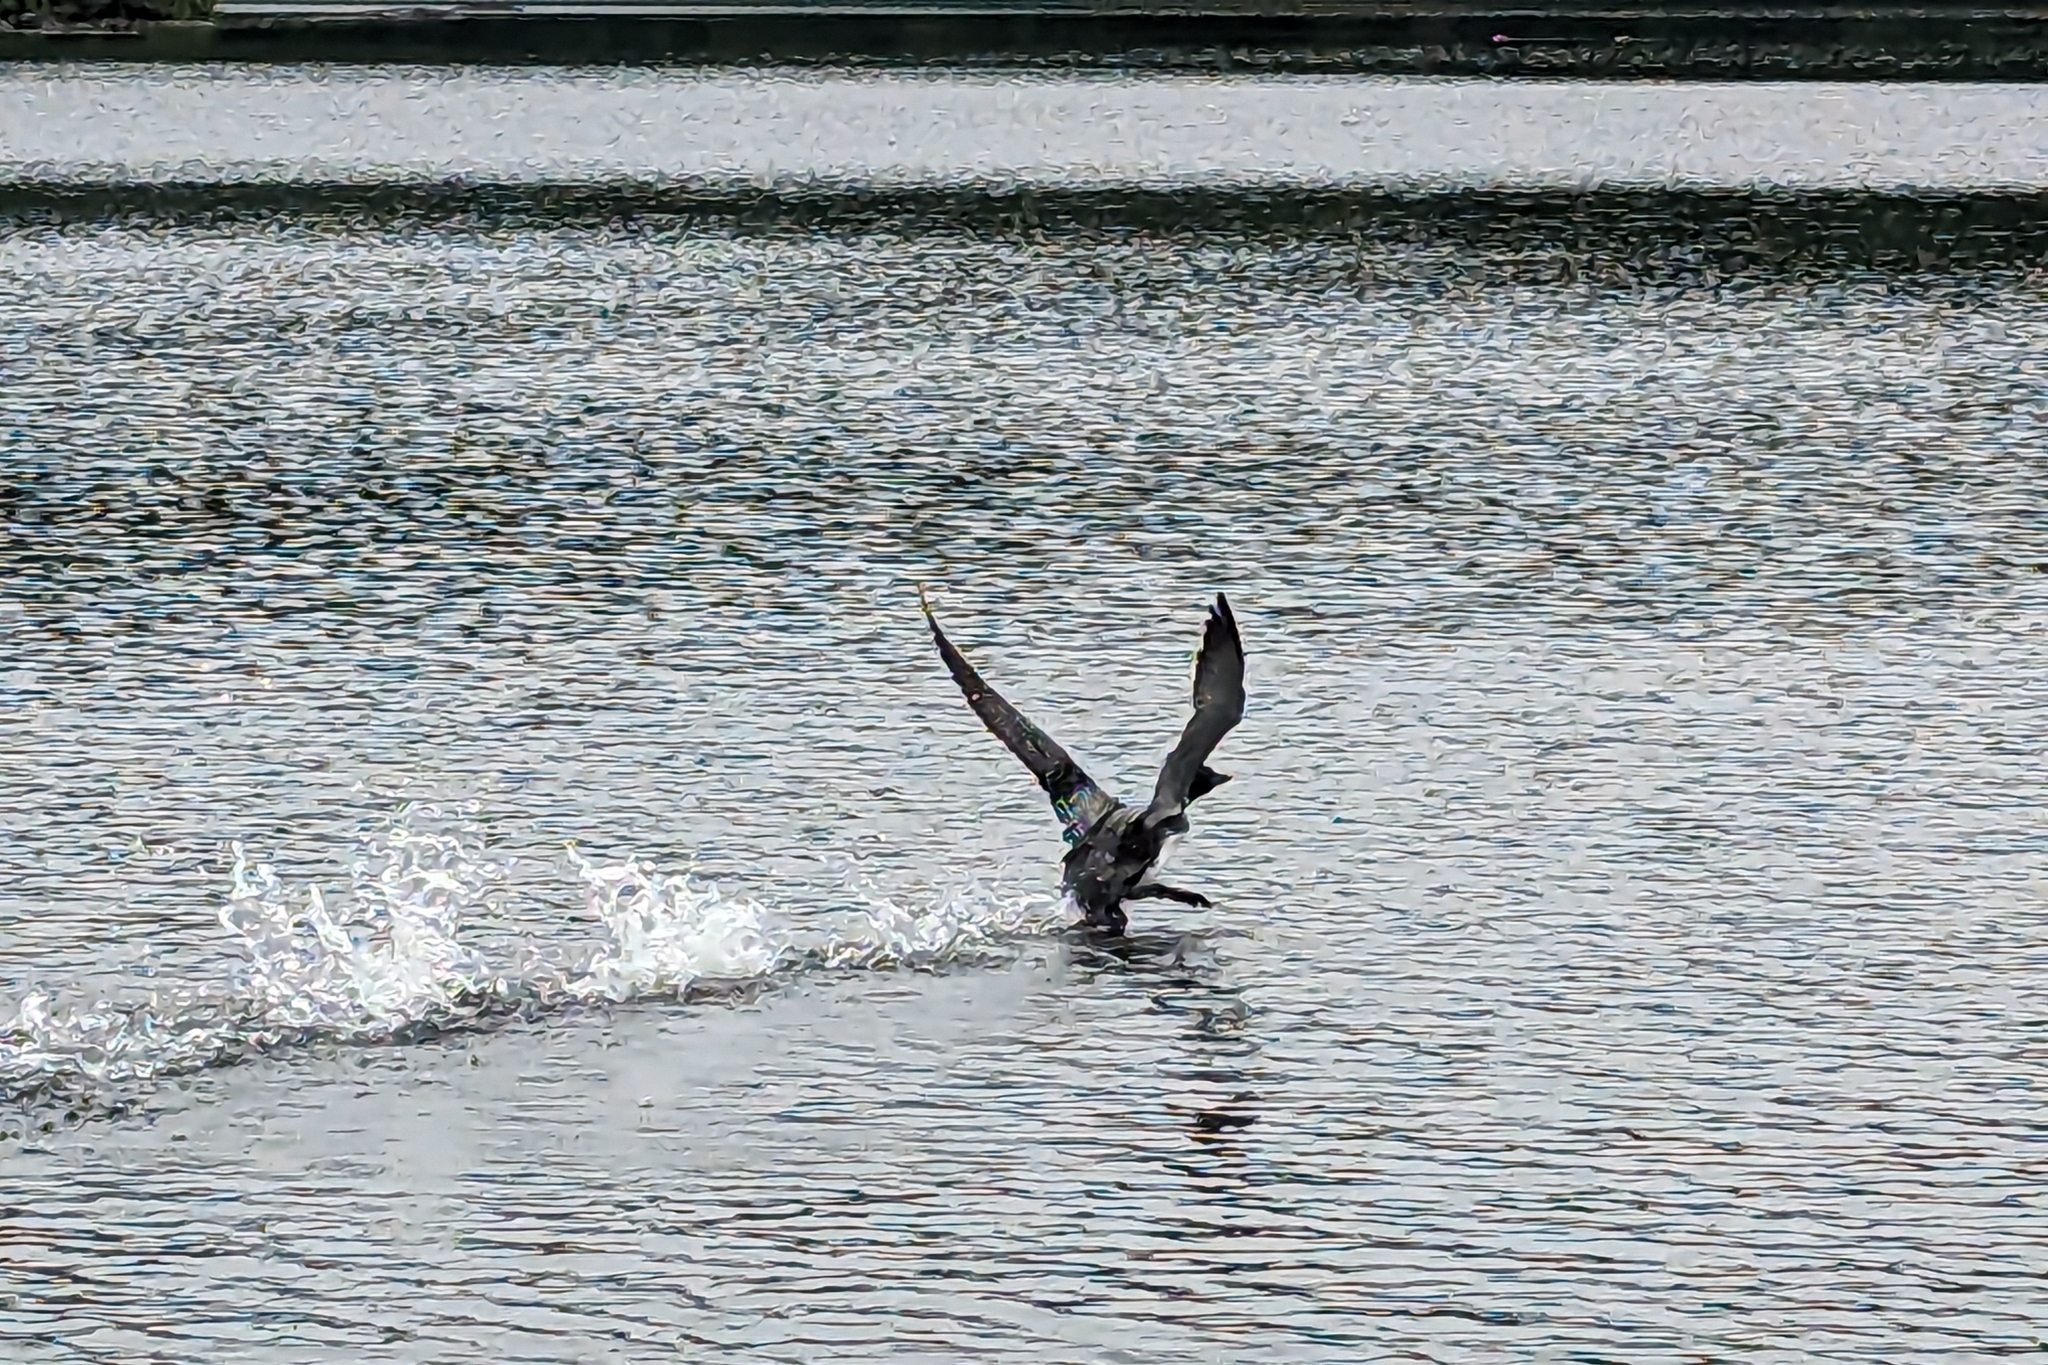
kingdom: Animalia
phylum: Chordata
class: Aves
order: Gaviiformes
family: Gaviidae
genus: Gavia
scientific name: Gavia immer
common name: Common loon
